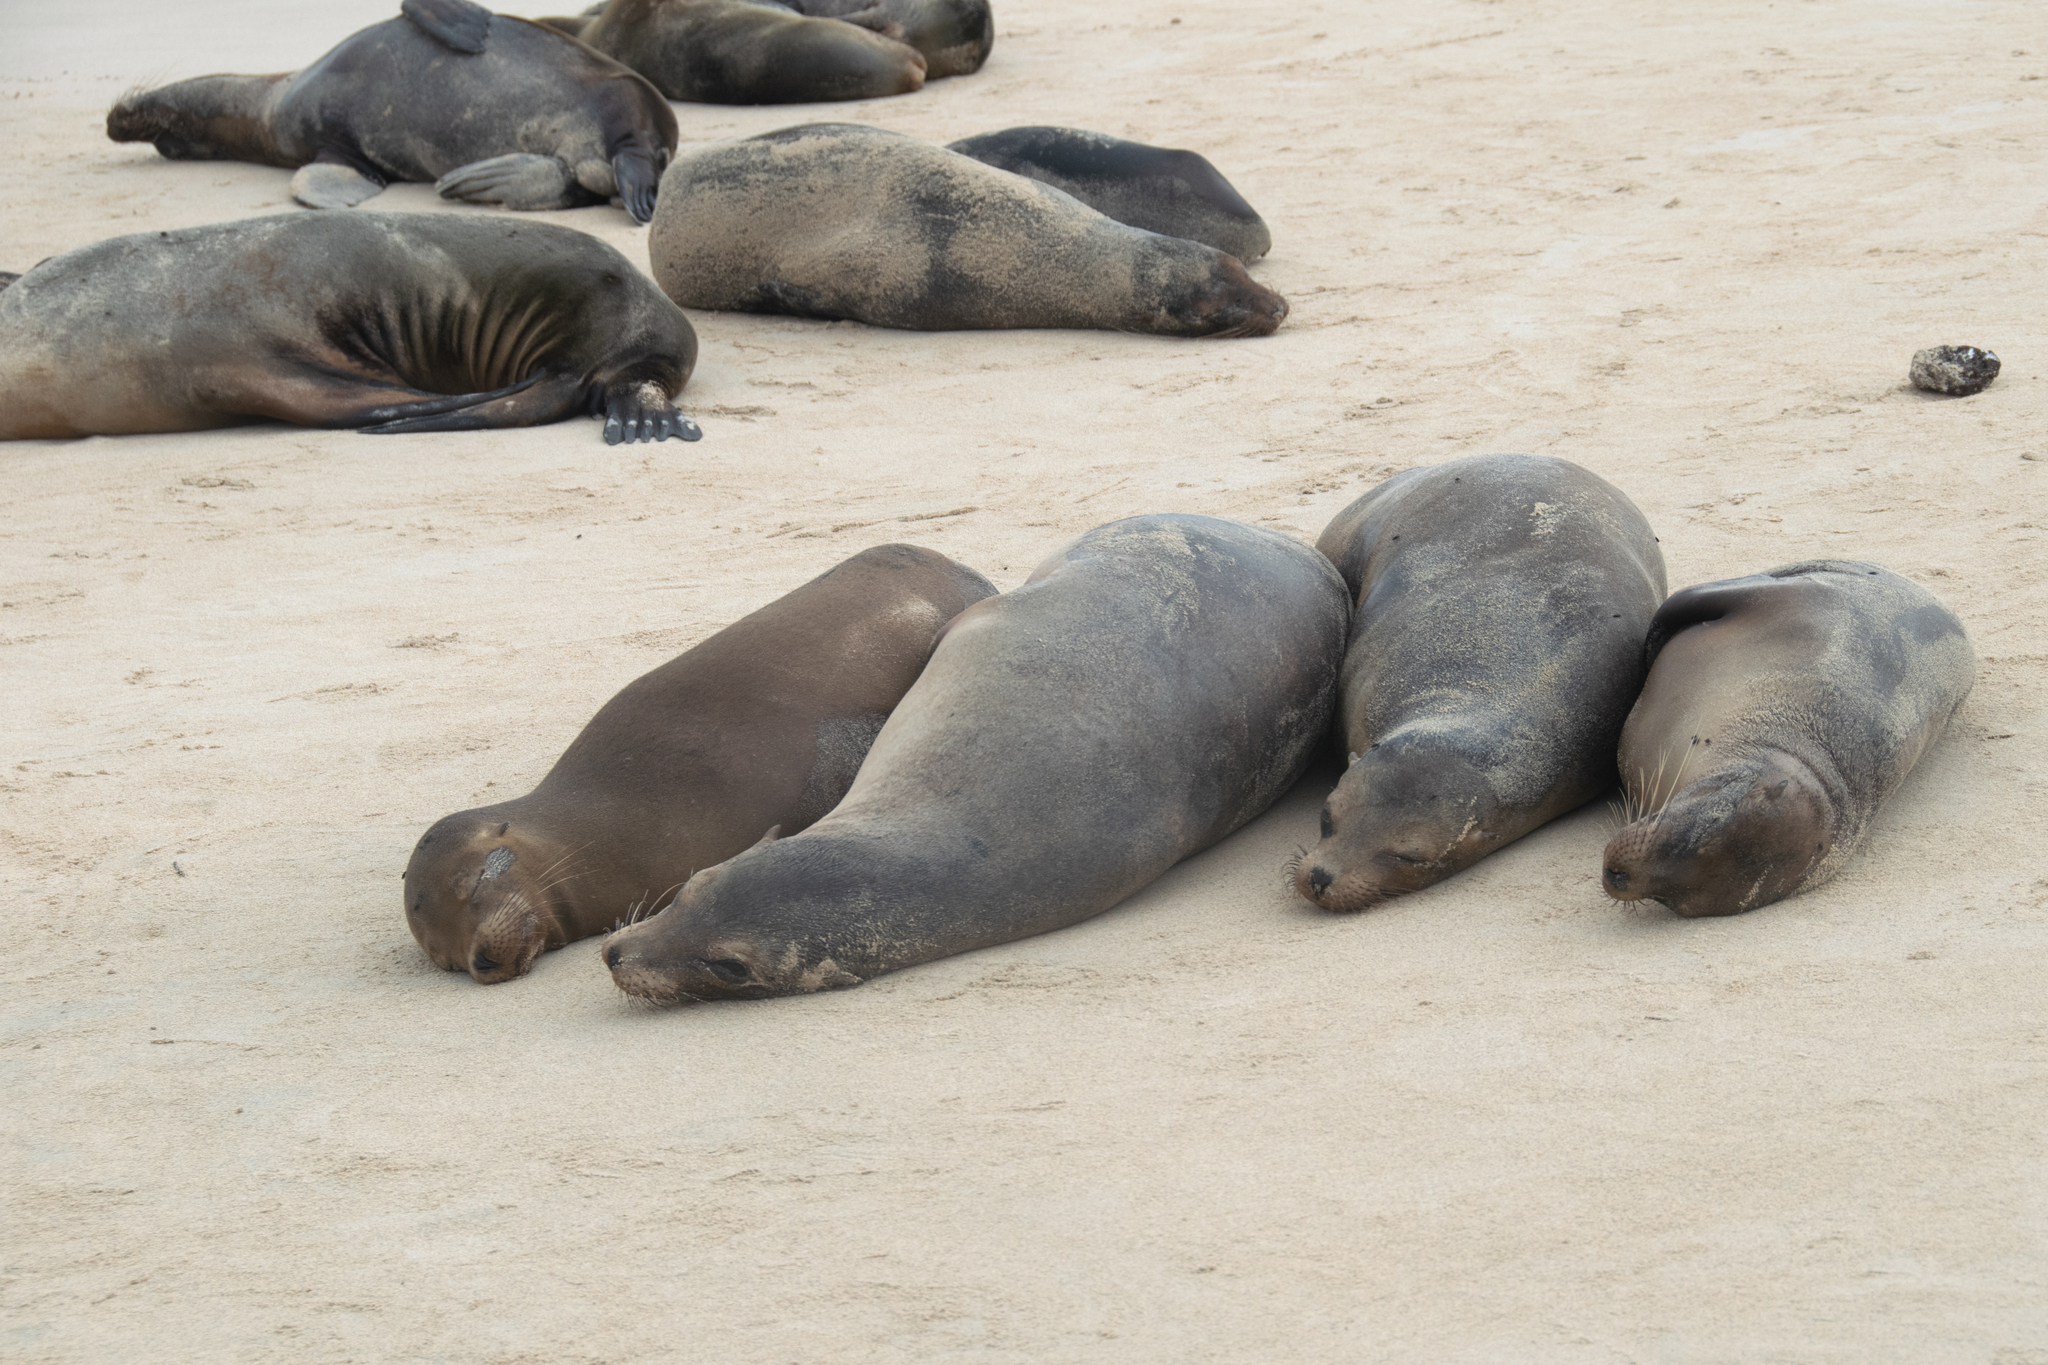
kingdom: Animalia
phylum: Chordata
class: Mammalia
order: Carnivora
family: Otariidae
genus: Zalophus
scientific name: Zalophus wollebaeki
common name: Galapagos sea lion
